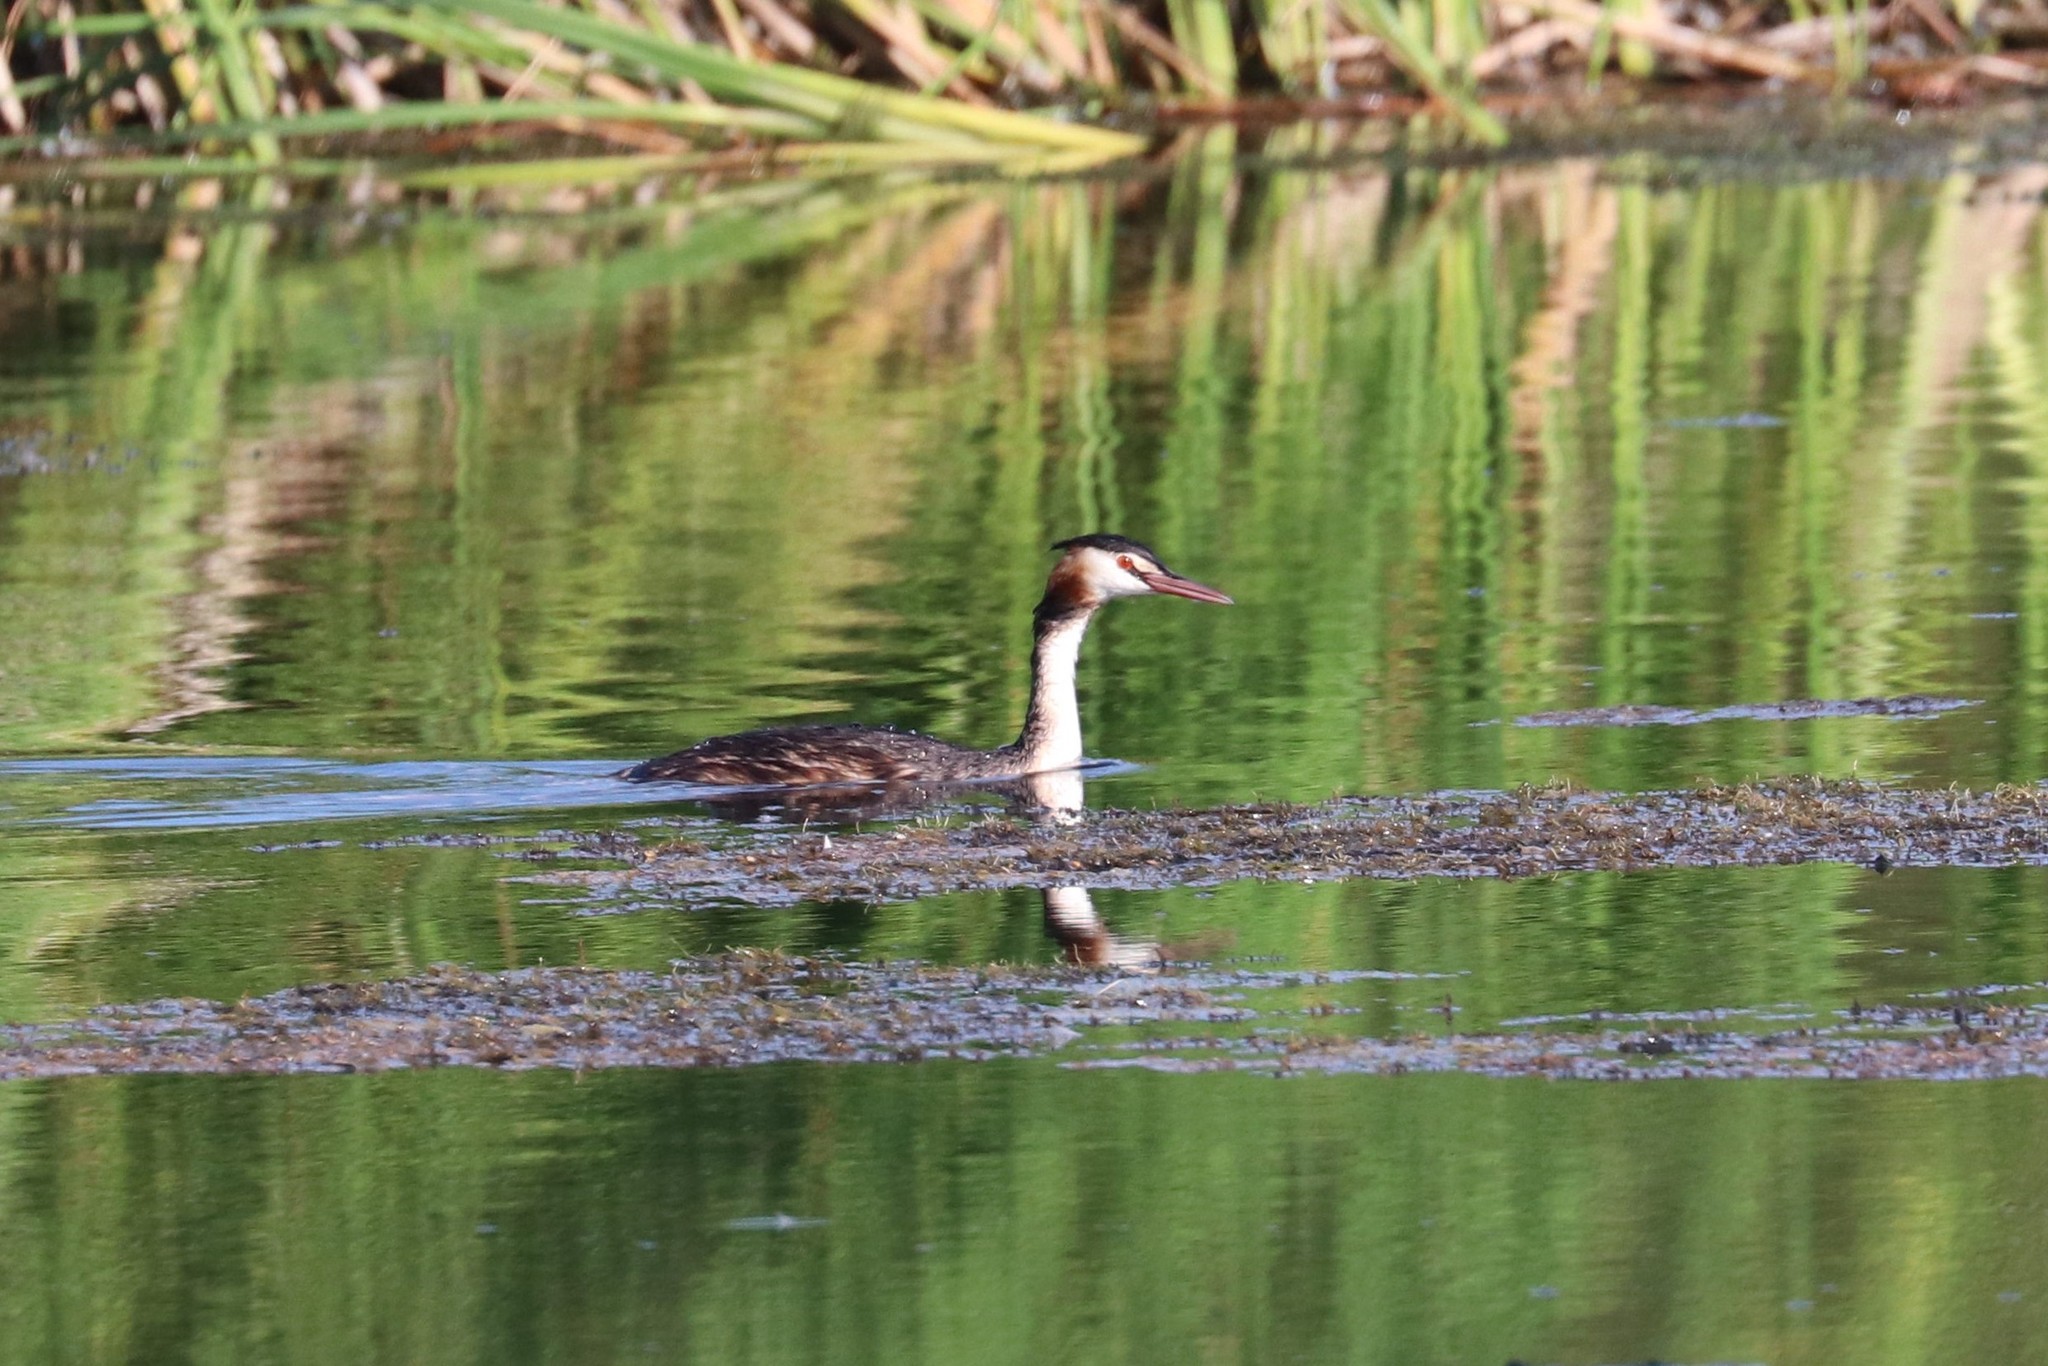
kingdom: Animalia
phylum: Chordata
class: Aves
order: Podicipediformes
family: Podicipedidae
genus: Podiceps
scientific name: Podiceps cristatus
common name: Great crested grebe
